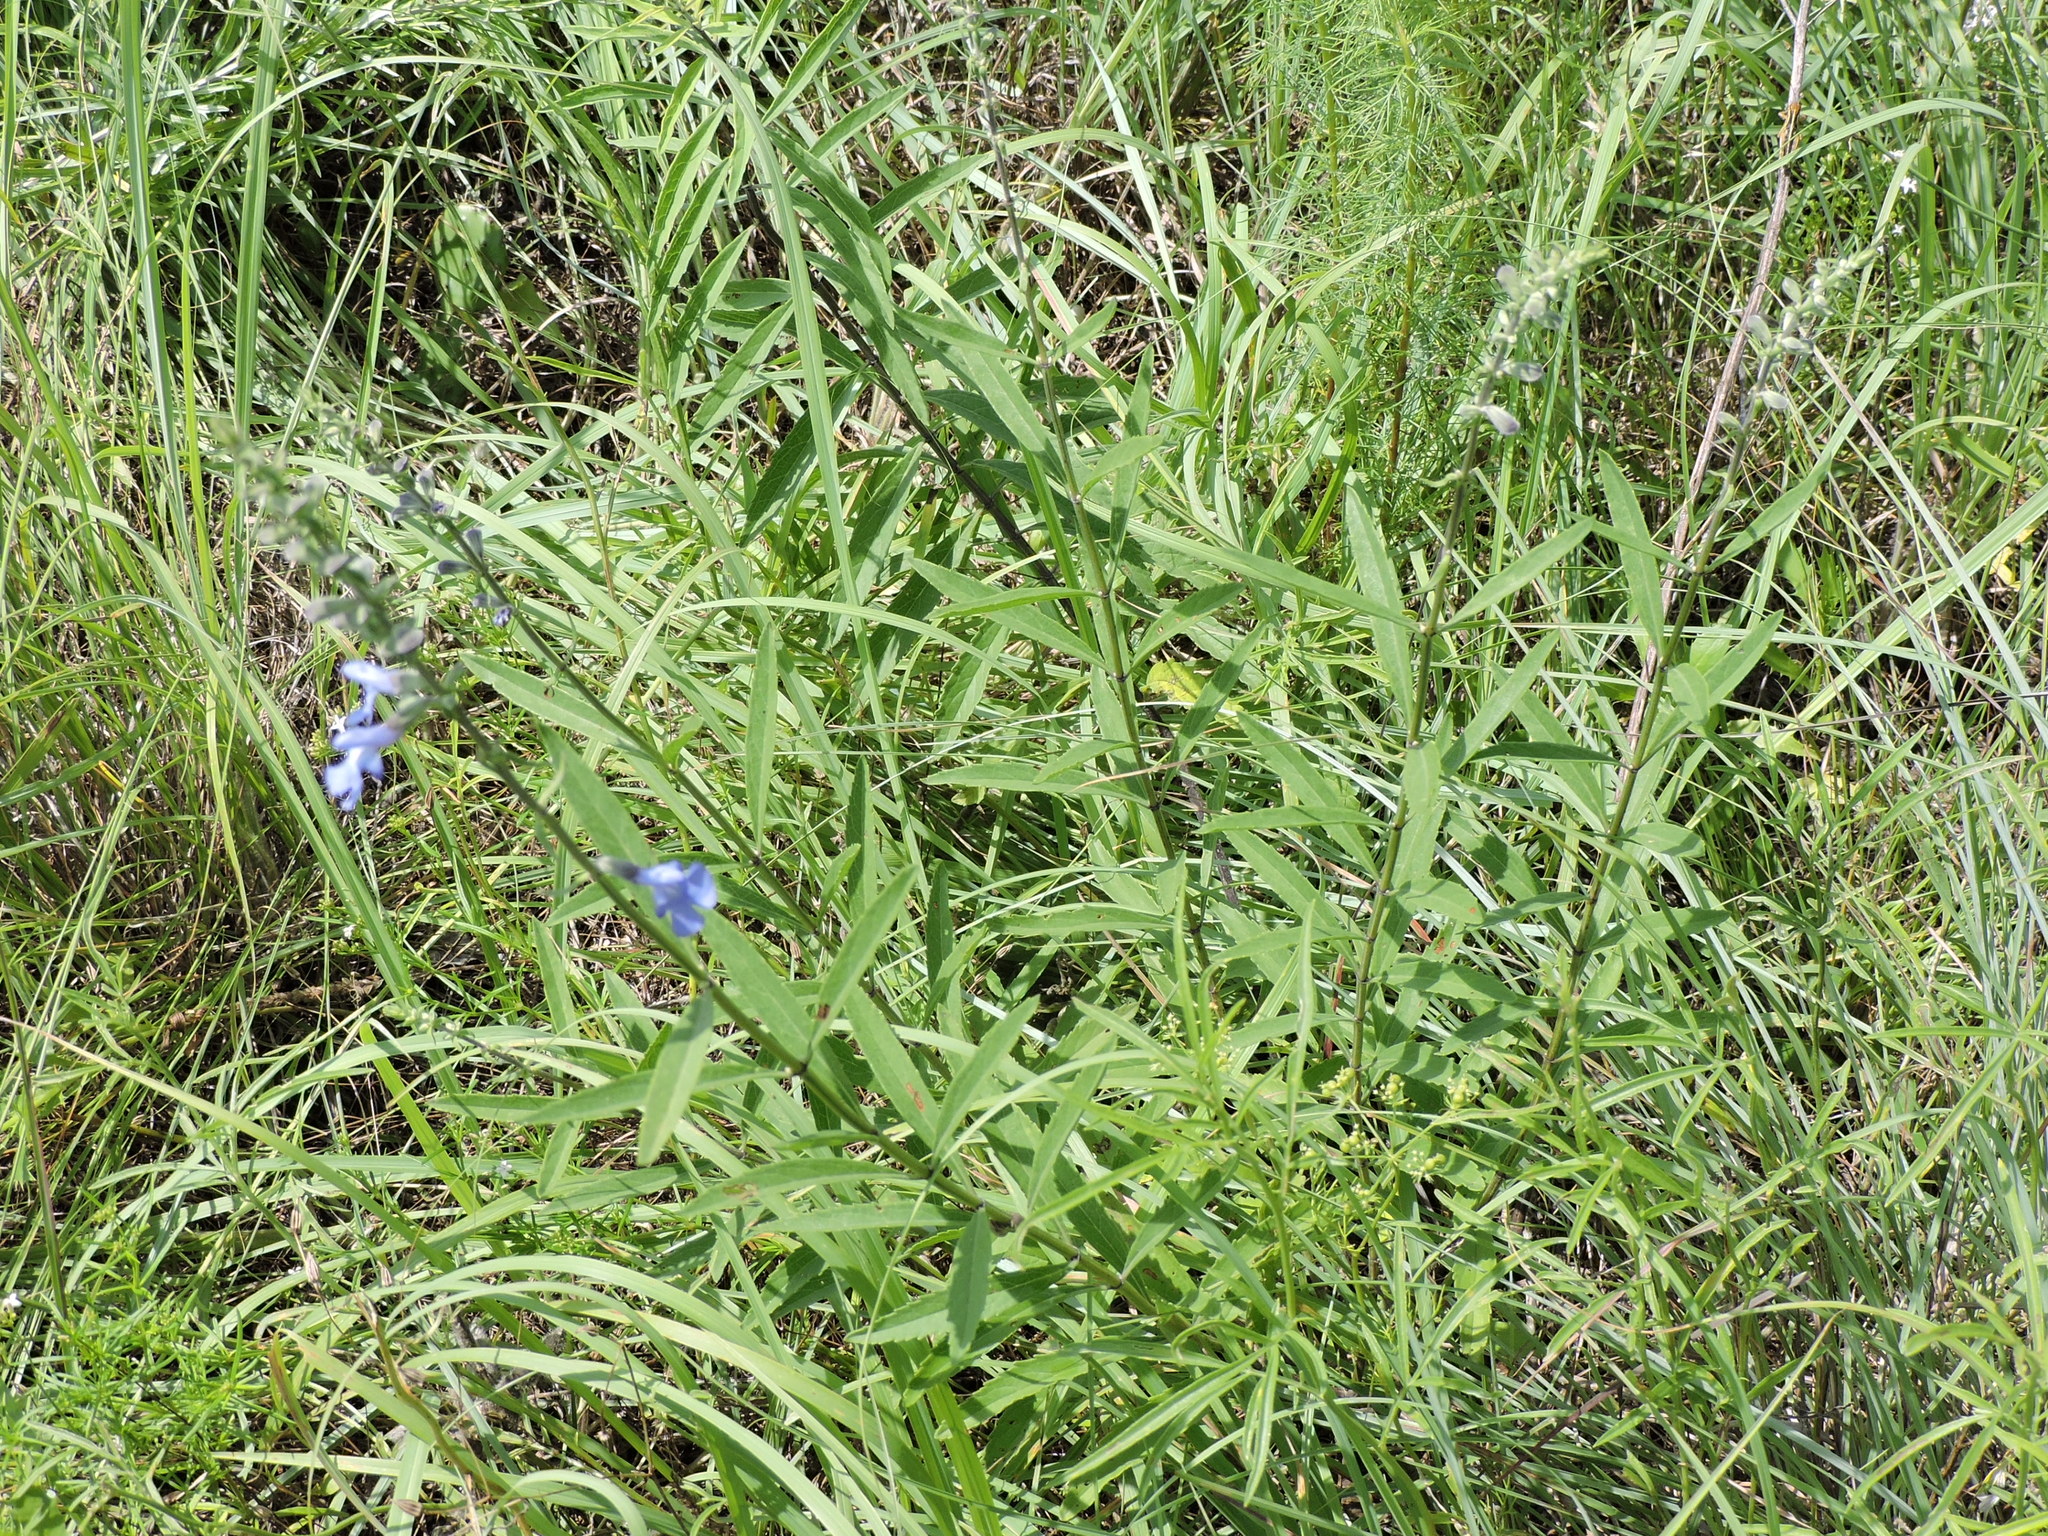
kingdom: Plantae
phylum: Tracheophyta
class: Magnoliopsida
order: Lamiales
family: Lamiaceae
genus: Salvia
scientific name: Salvia azurea
